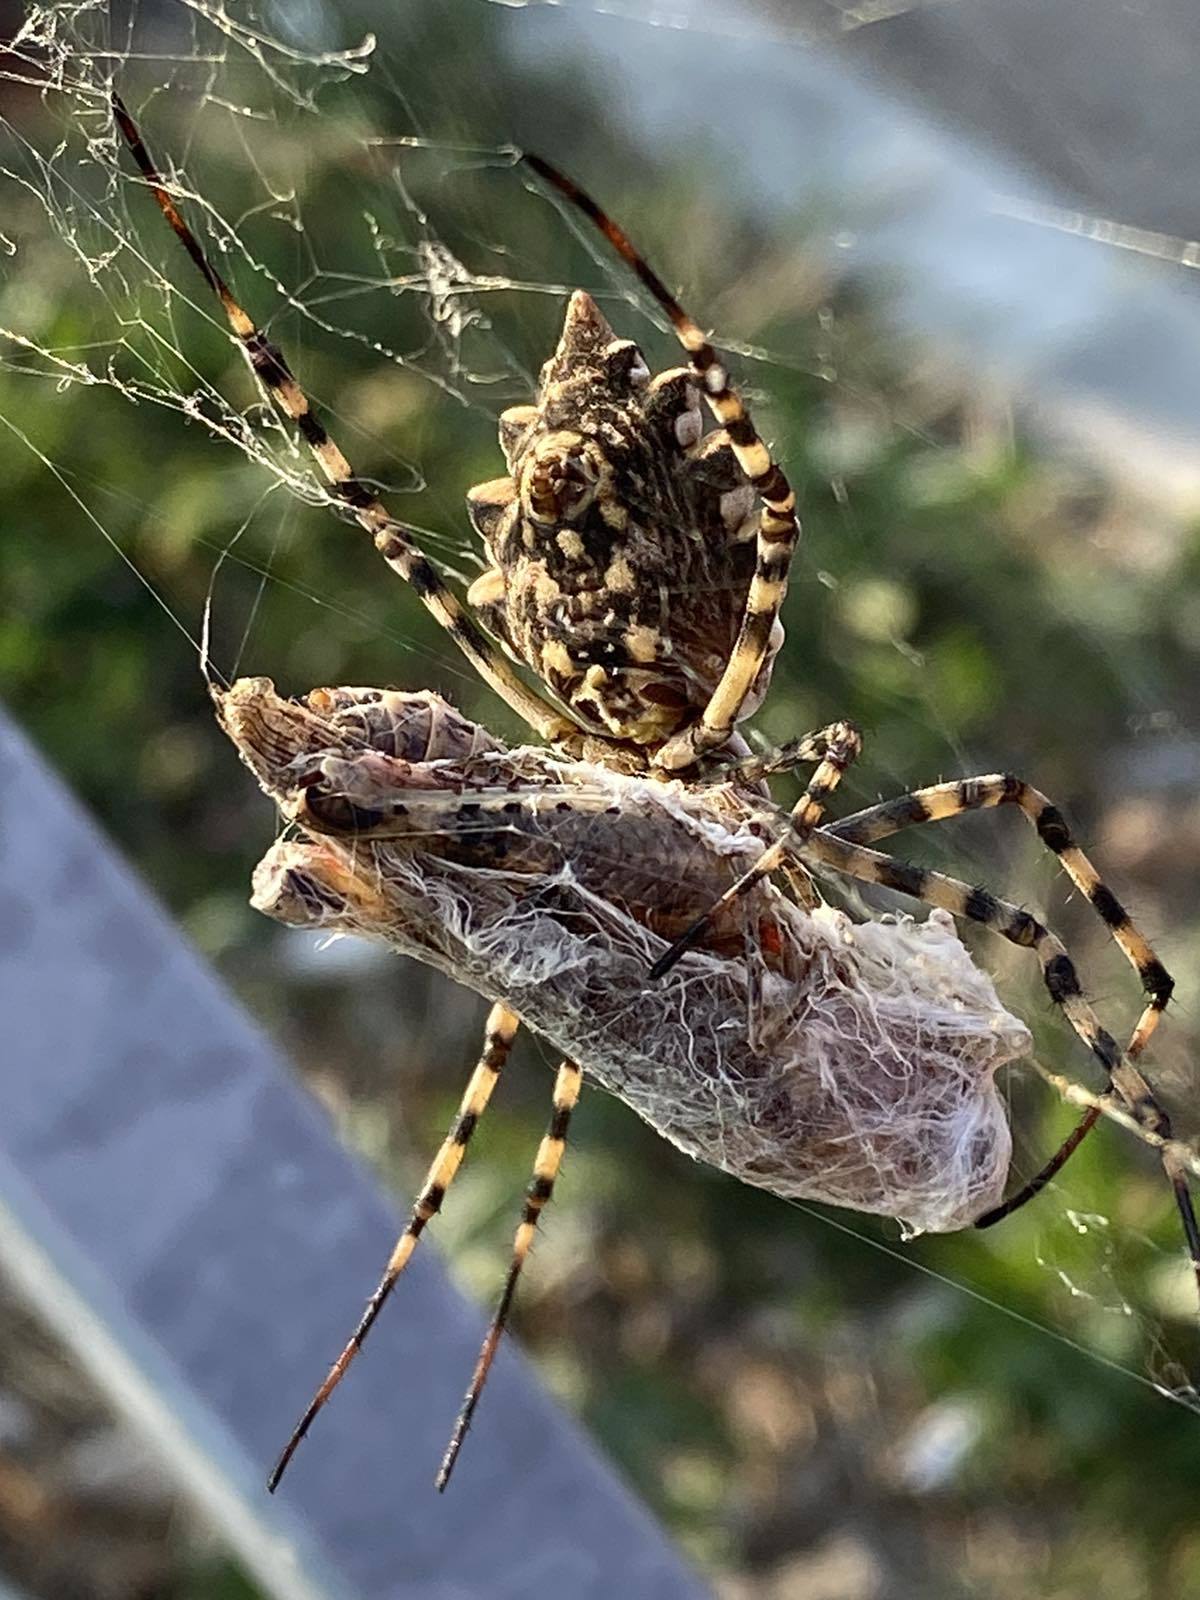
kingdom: Animalia
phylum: Arthropoda
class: Arachnida
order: Araneae
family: Araneidae
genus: Argiope
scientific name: Argiope lobata
